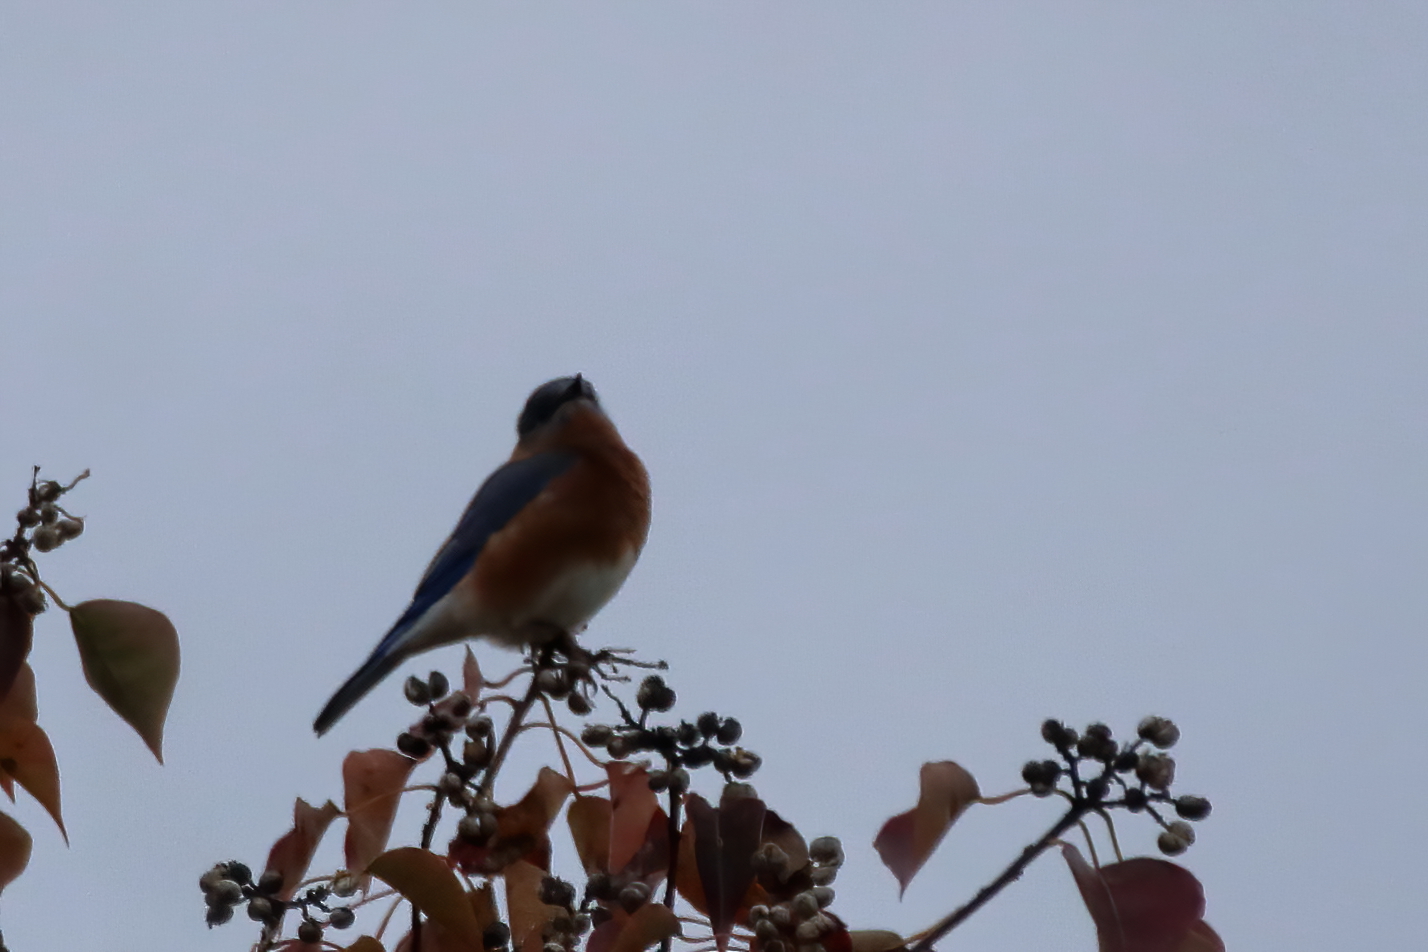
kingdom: Animalia
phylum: Chordata
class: Aves
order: Passeriformes
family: Turdidae
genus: Sialia
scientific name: Sialia sialis
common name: Eastern bluebird
